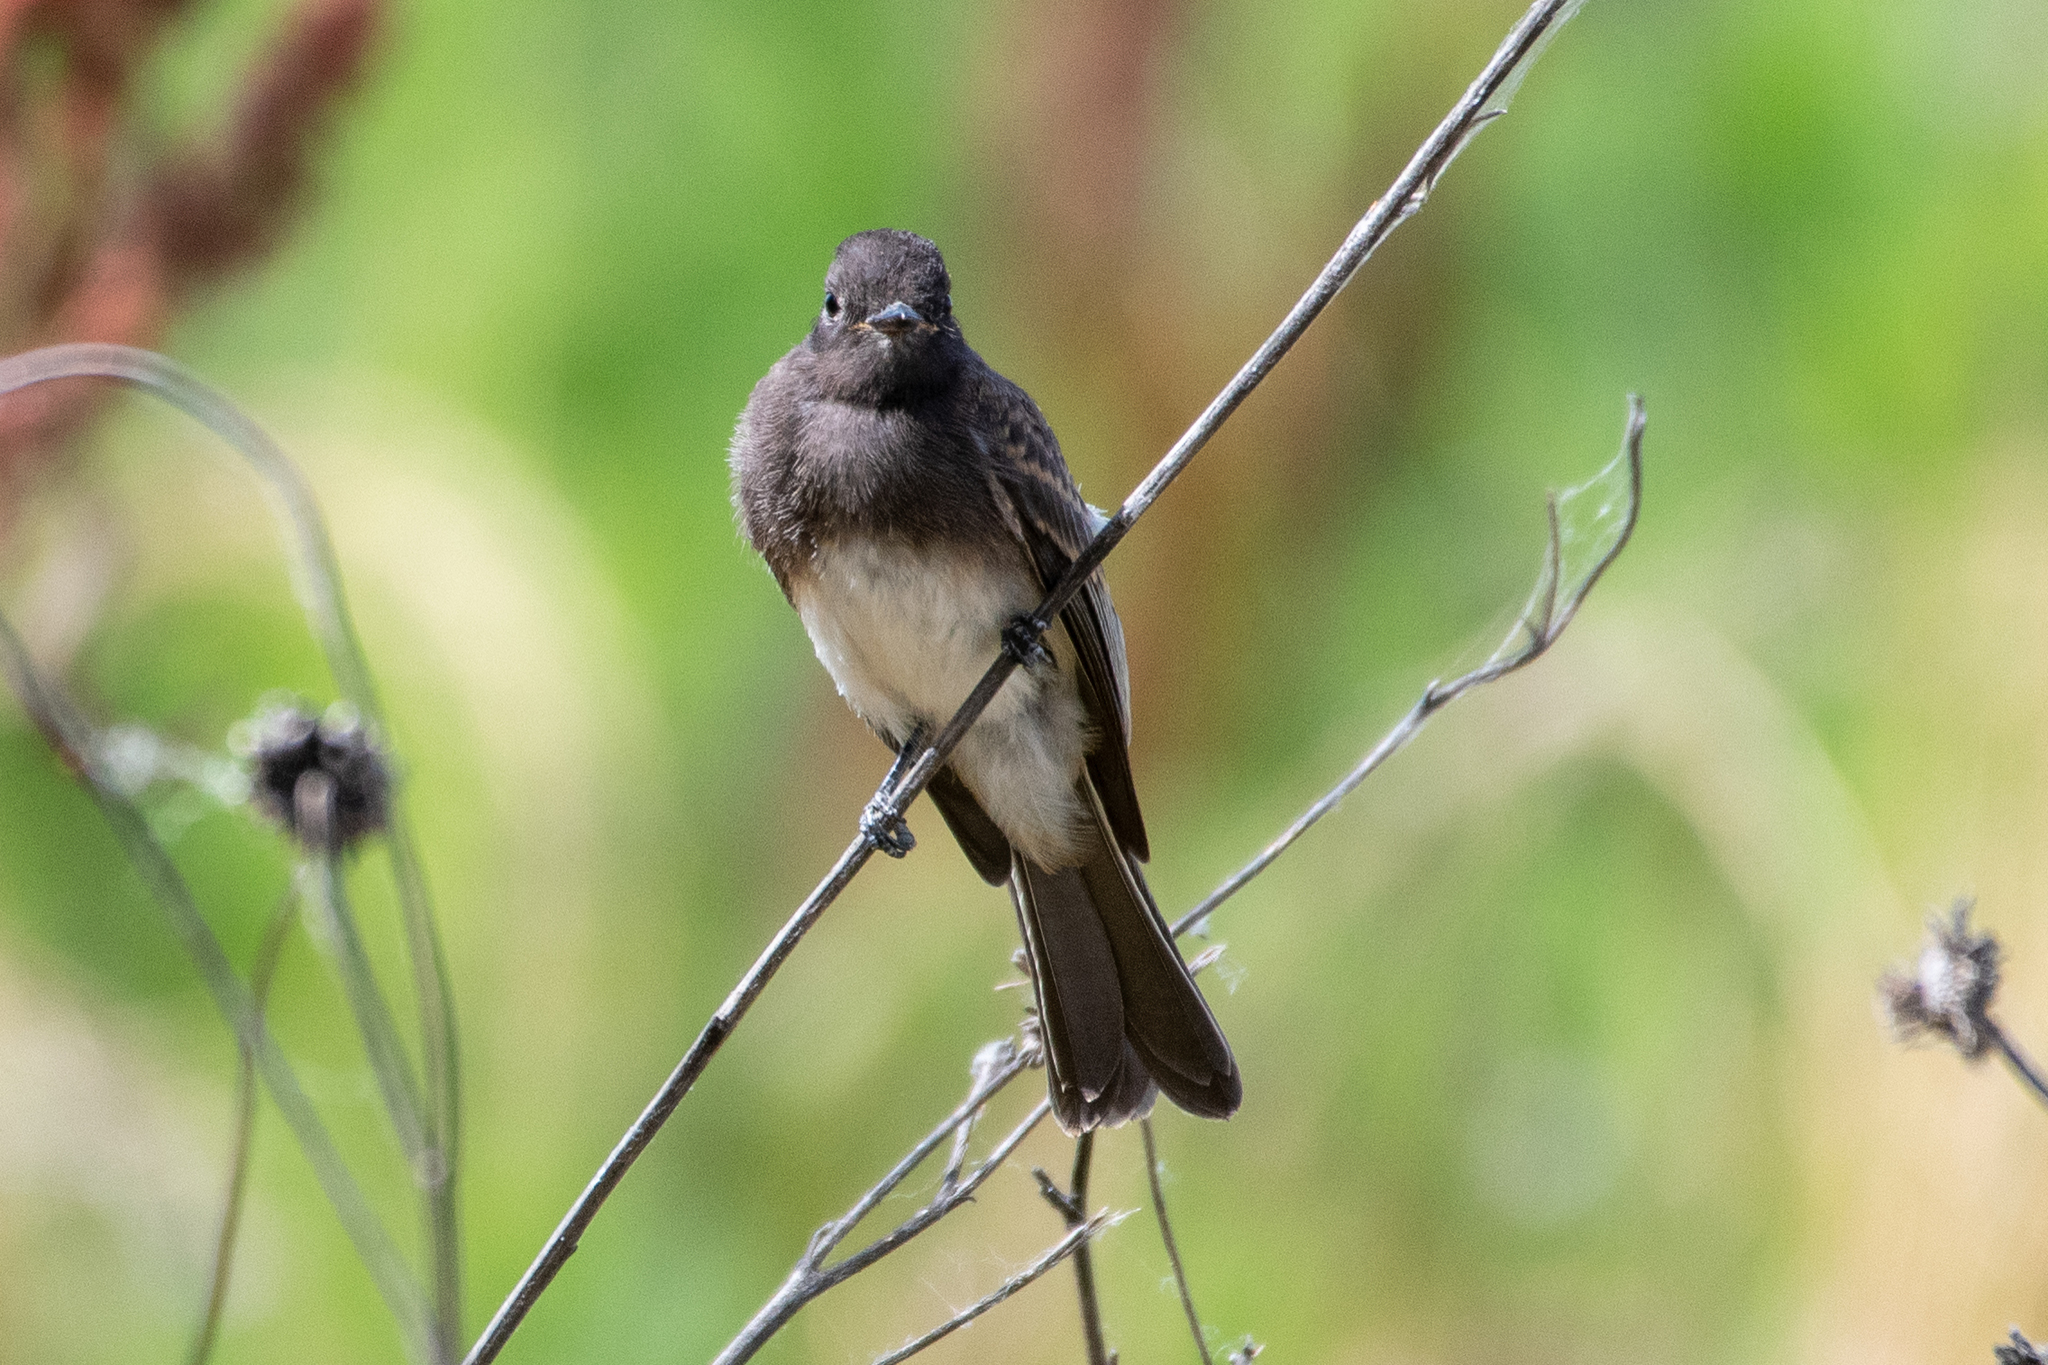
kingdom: Animalia
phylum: Chordata
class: Aves
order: Passeriformes
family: Tyrannidae
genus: Sayornis
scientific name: Sayornis nigricans
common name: Black phoebe
